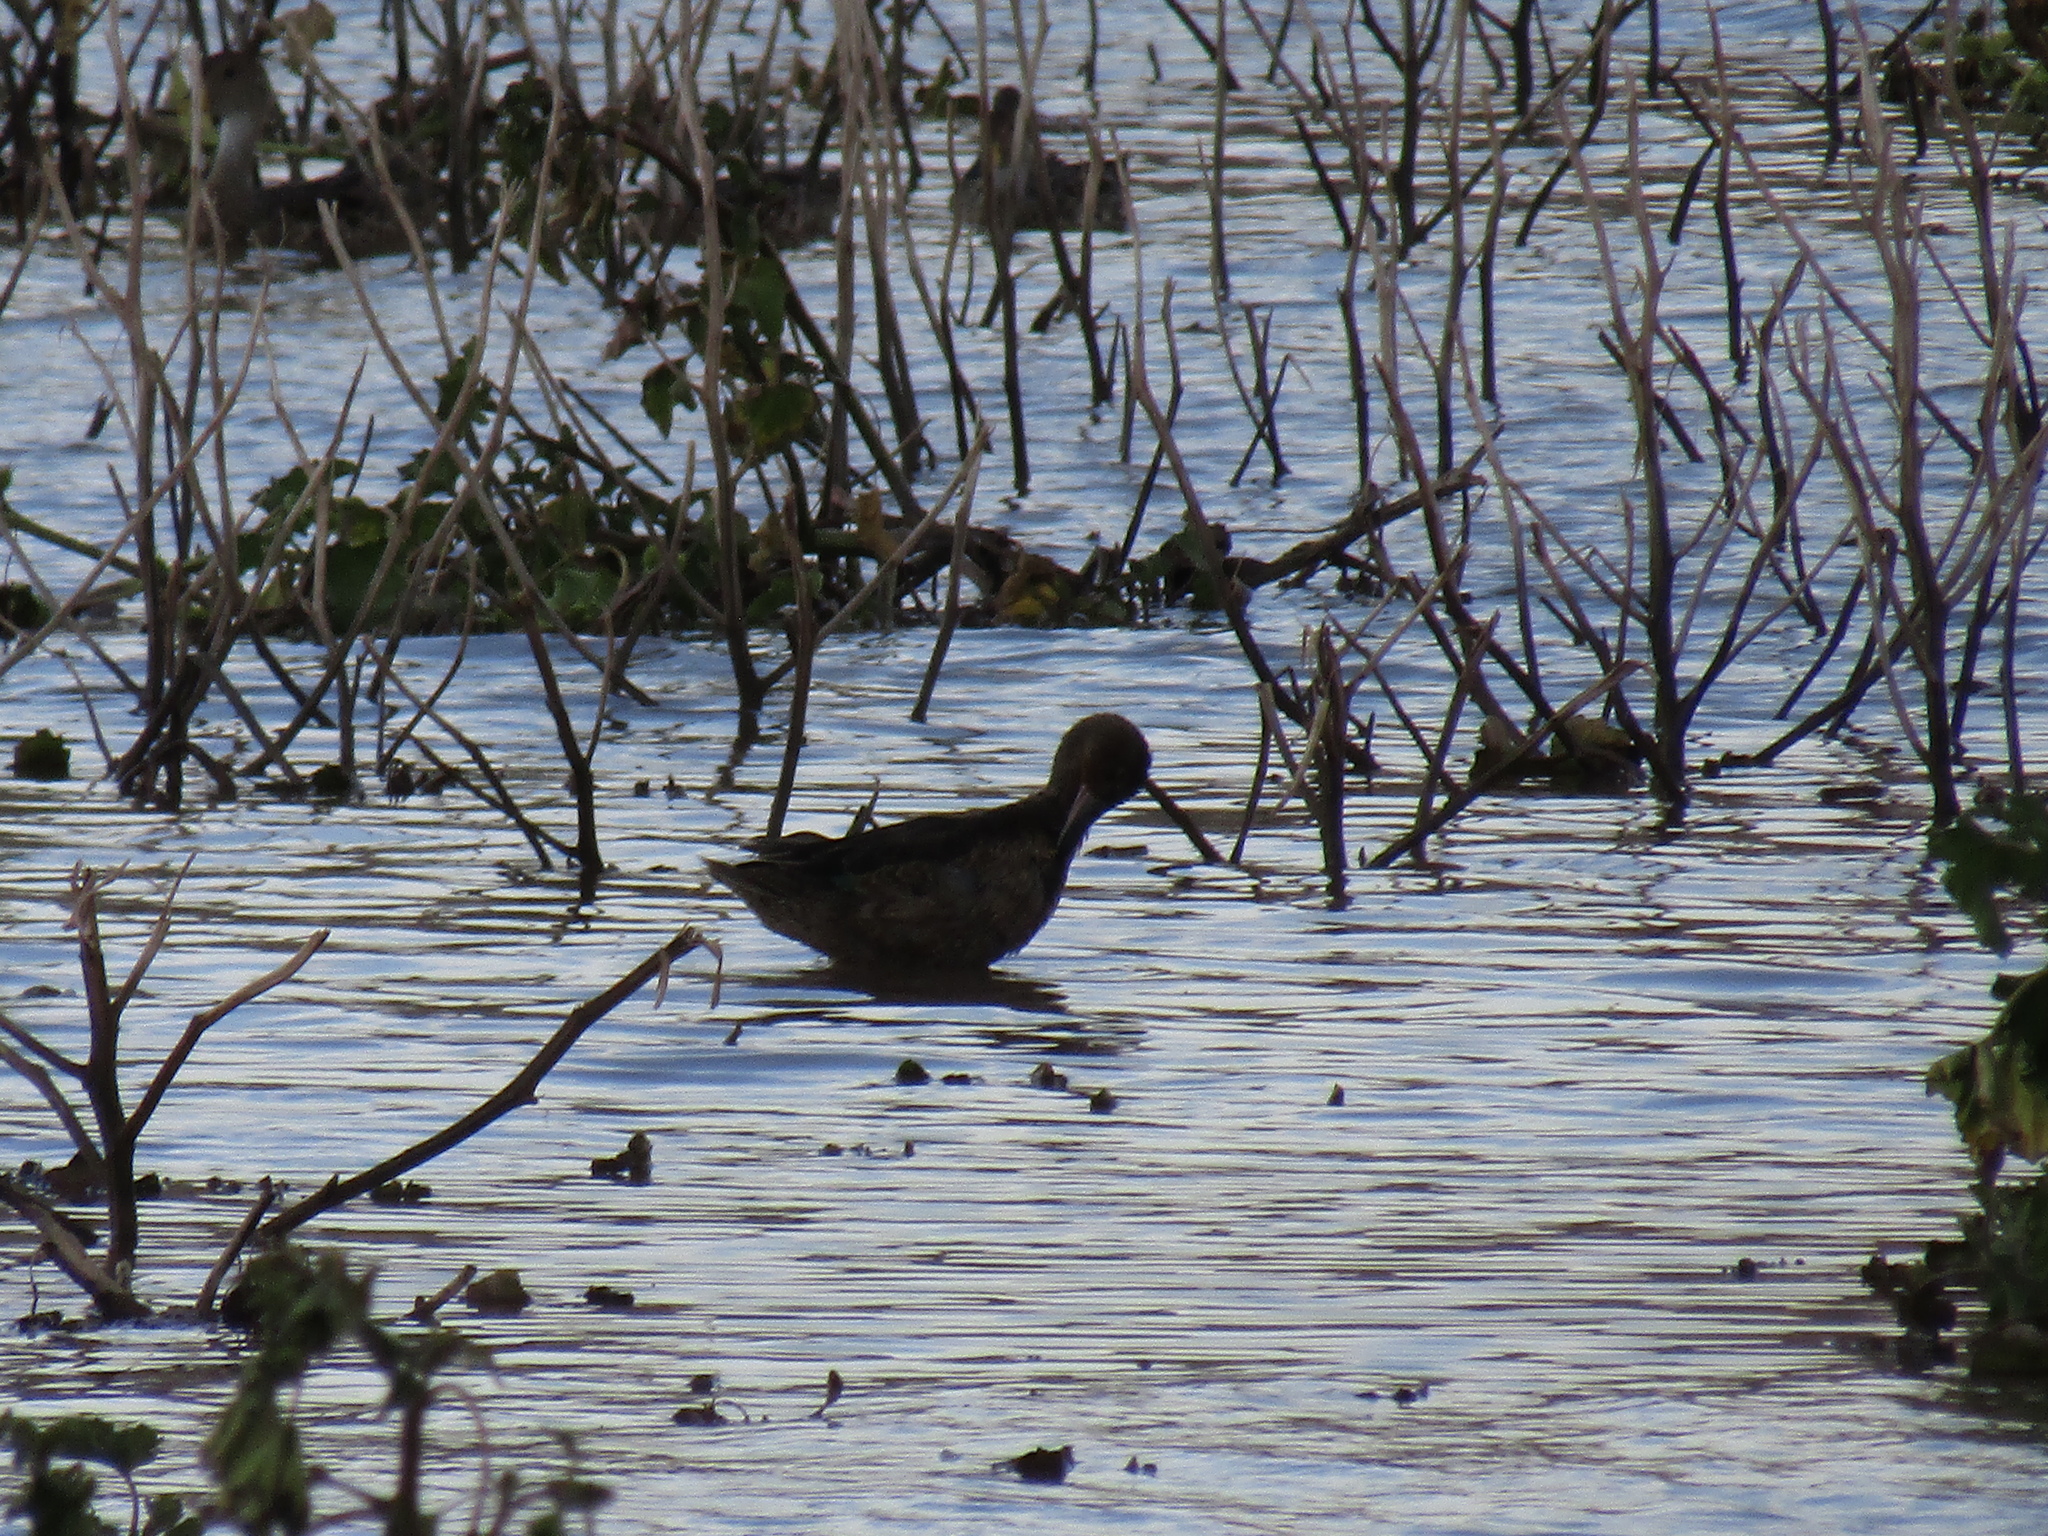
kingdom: Animalia
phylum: Chordata
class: Aves
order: Charadriiformes
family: Scolopacidae
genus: Phalaropus
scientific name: Phalaropus tricolor
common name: Wilson's phalarope
